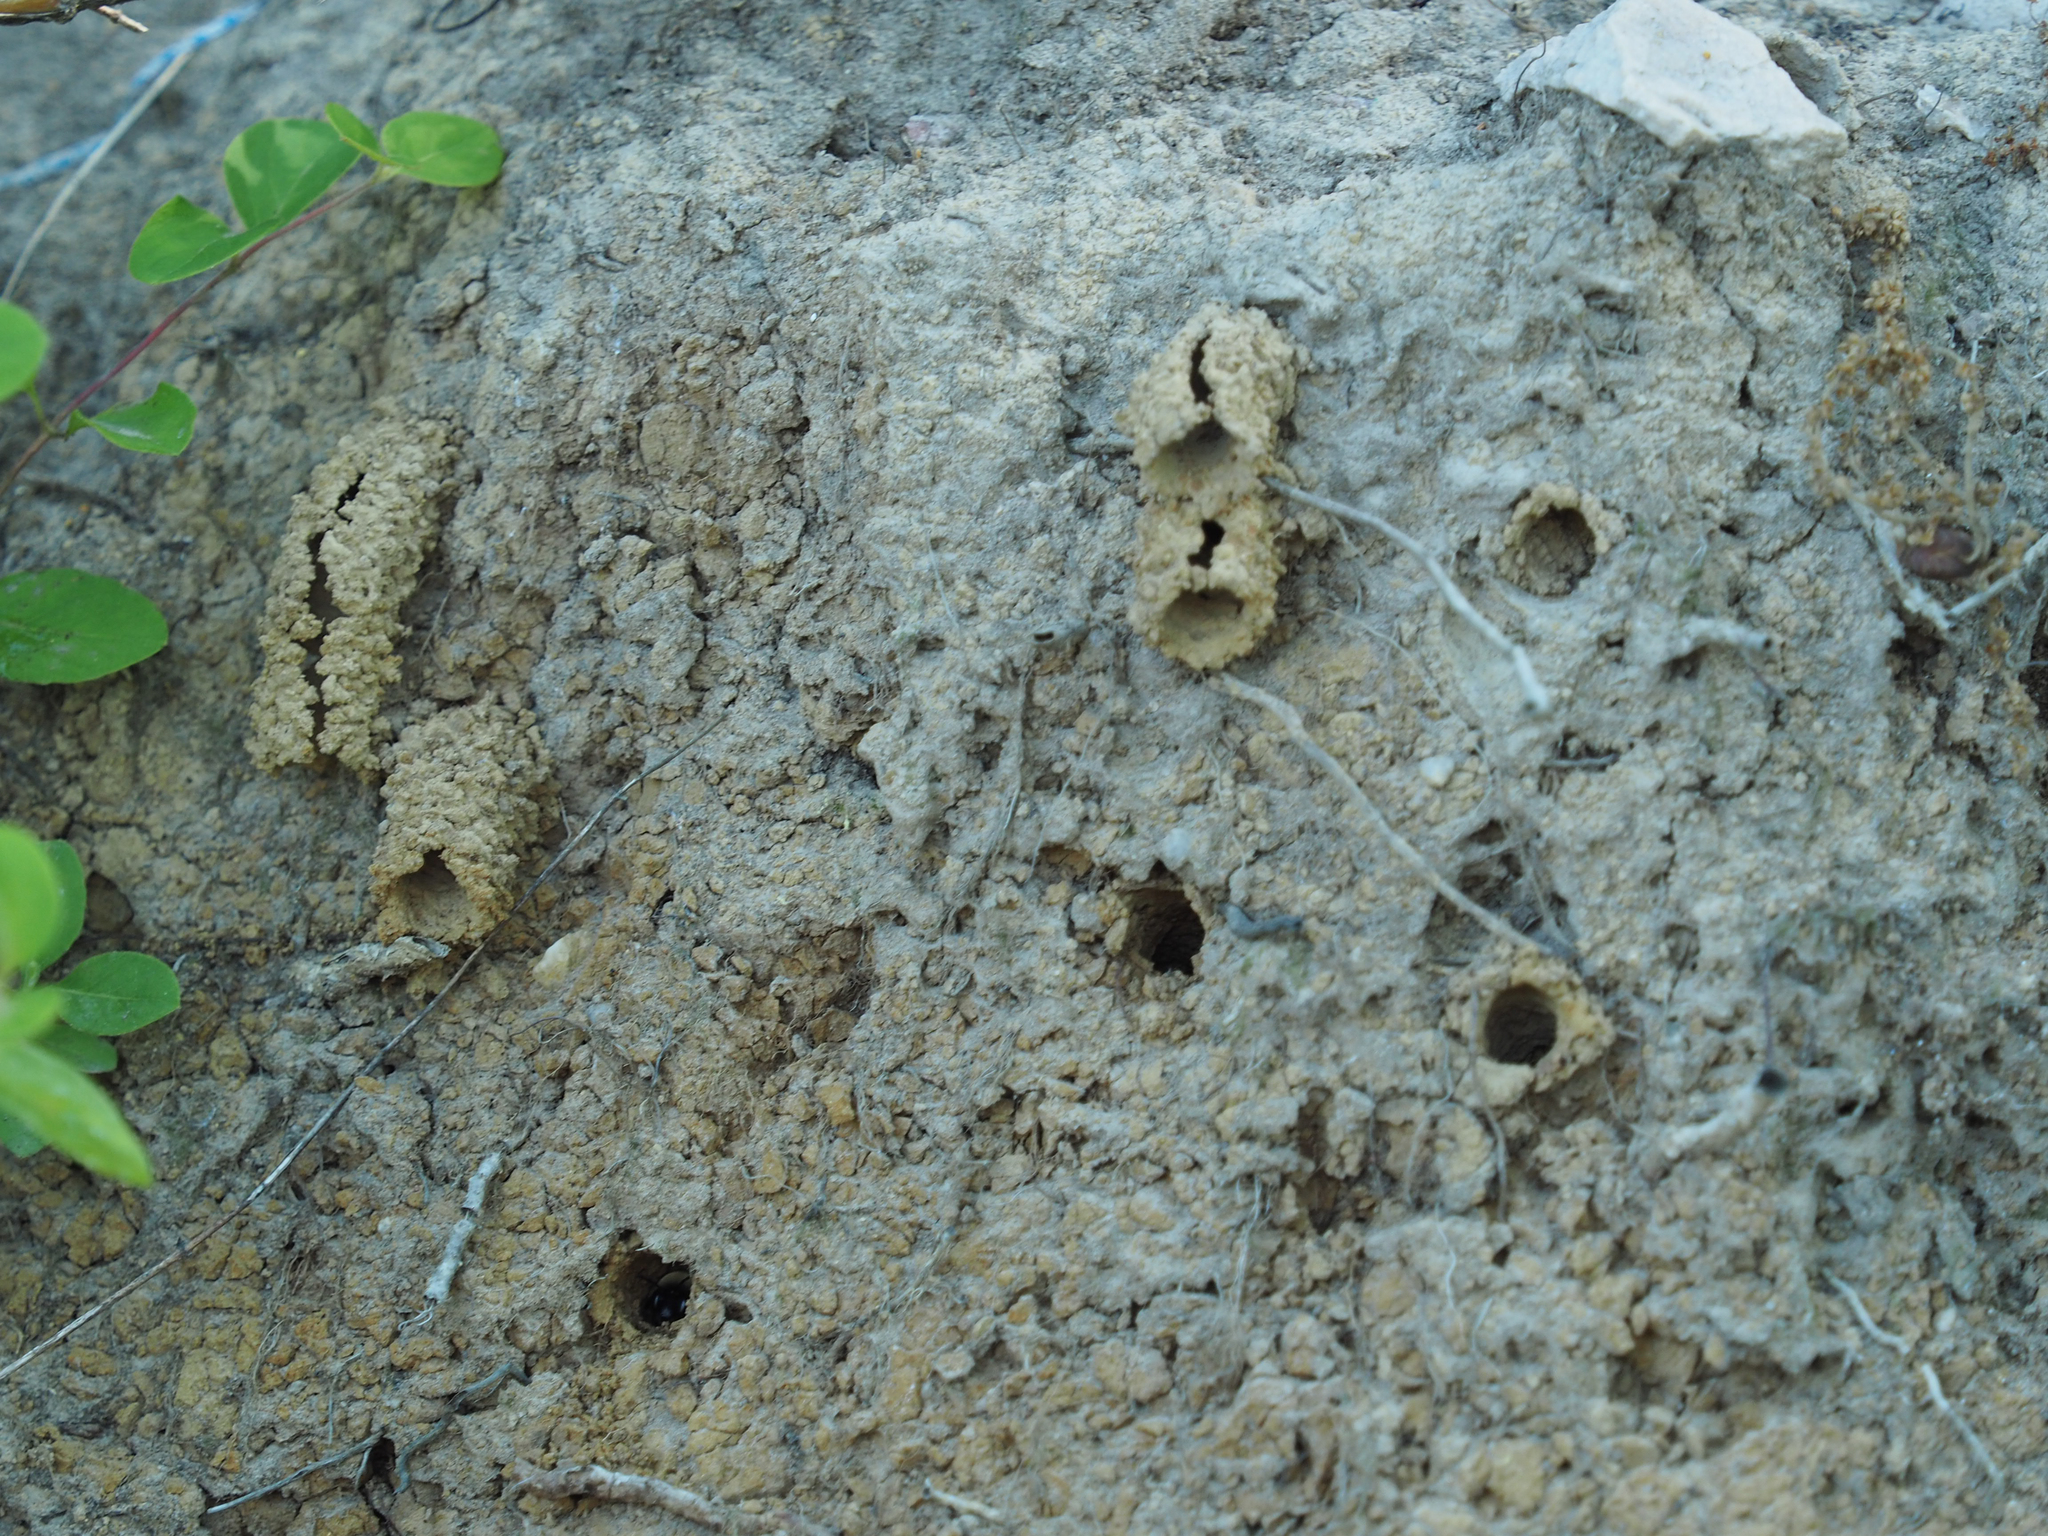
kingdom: Animalia
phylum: Arthropoda
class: Insecta
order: Hymenoptera
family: Apidae
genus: Anthophora
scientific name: Anthophora abrupta
